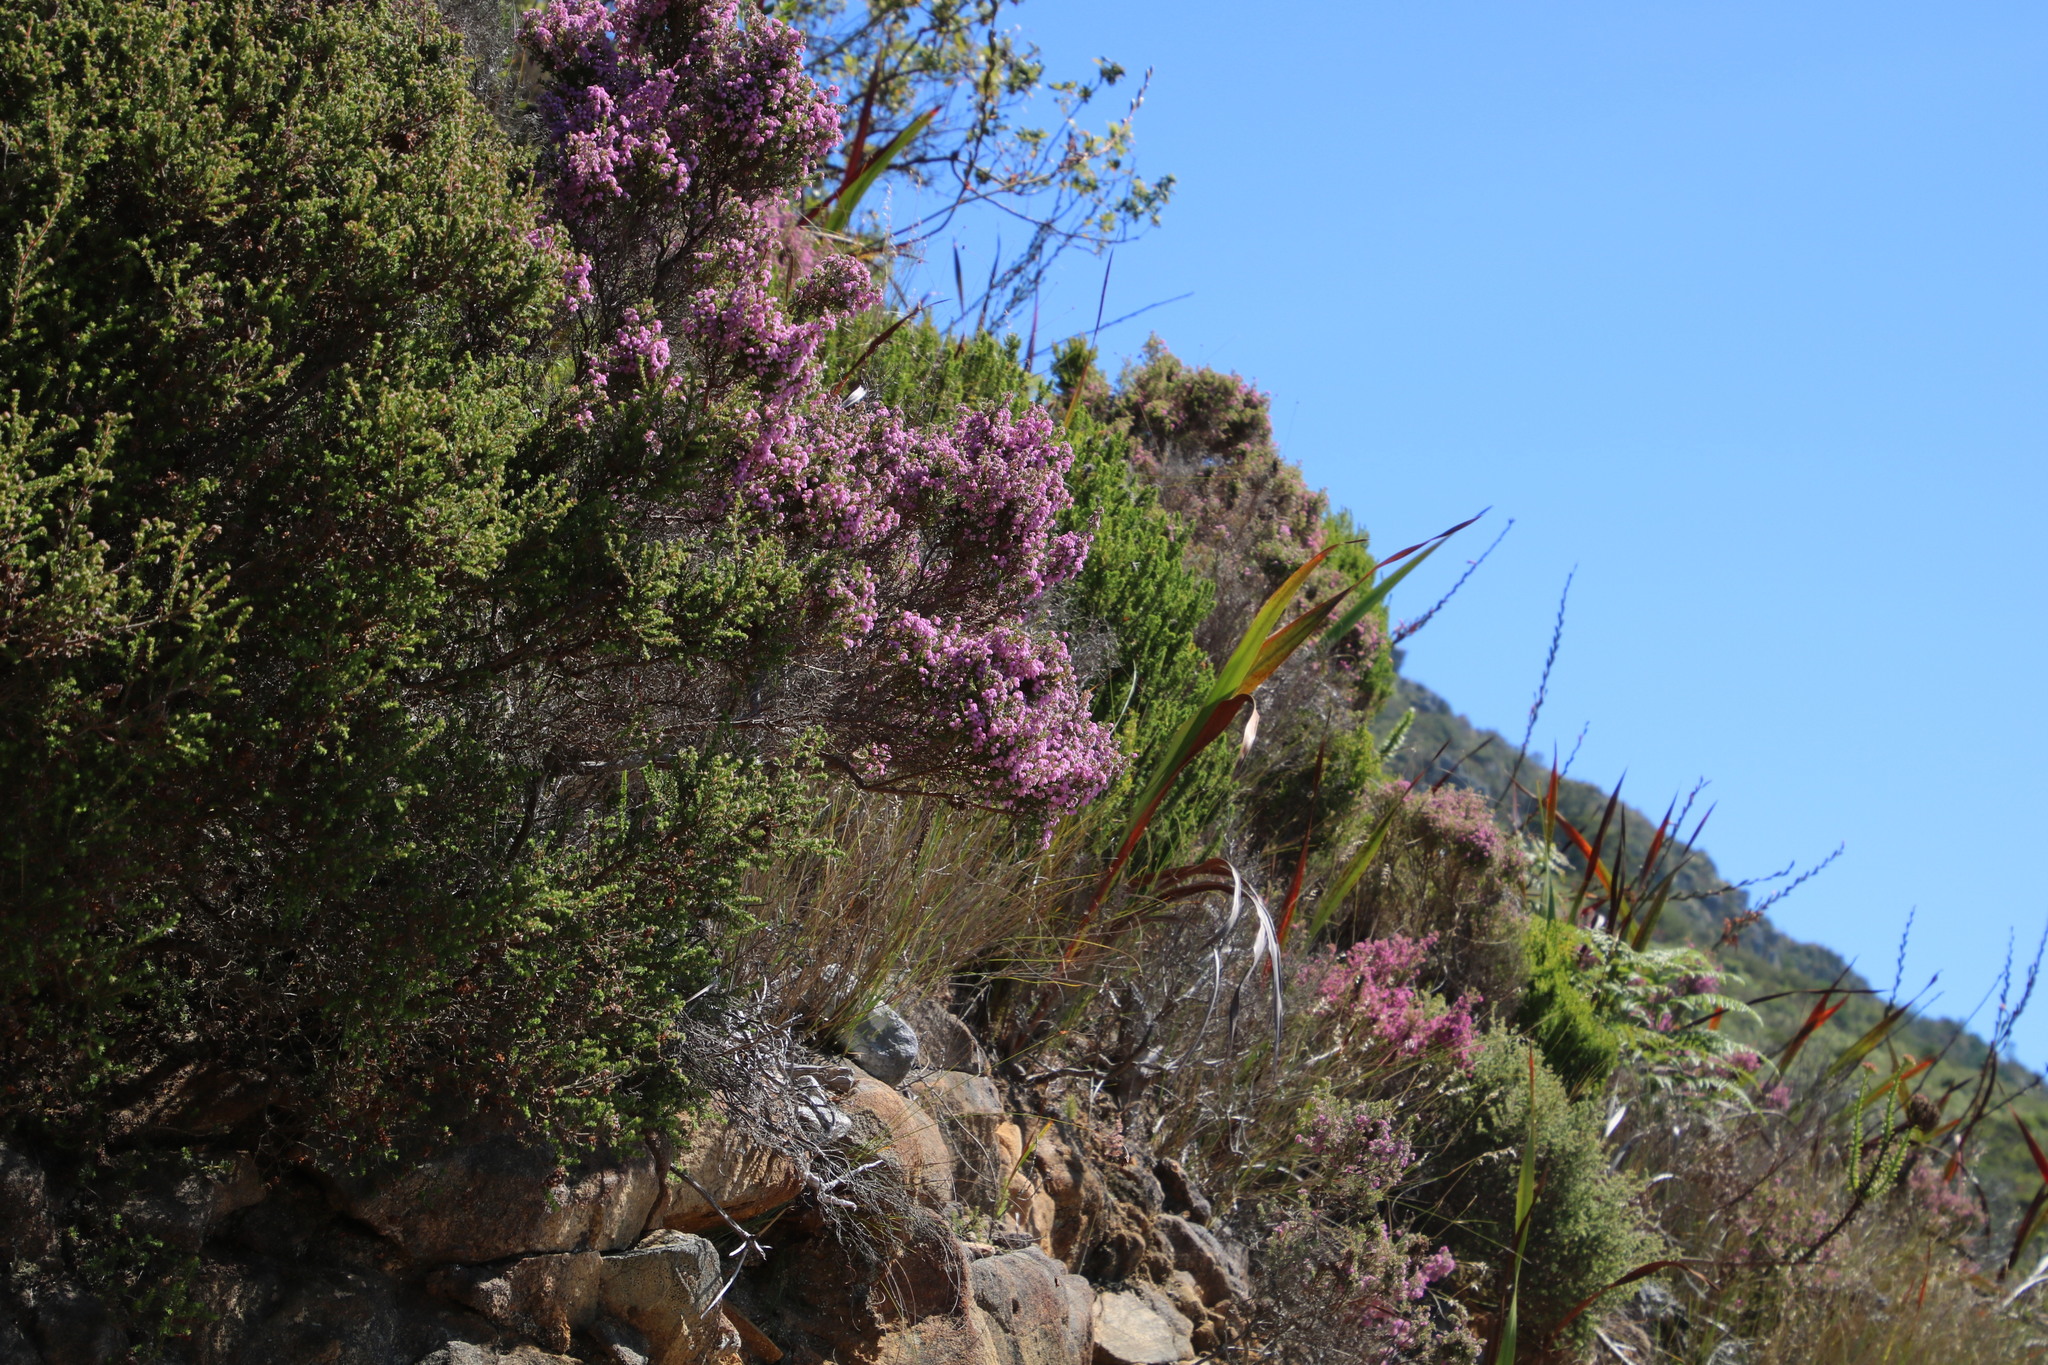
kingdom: Plantae
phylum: Tracheophyta
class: Magnoliopsida
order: Ericales
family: Ericaceae
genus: Erica
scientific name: Erica hirtiflora
